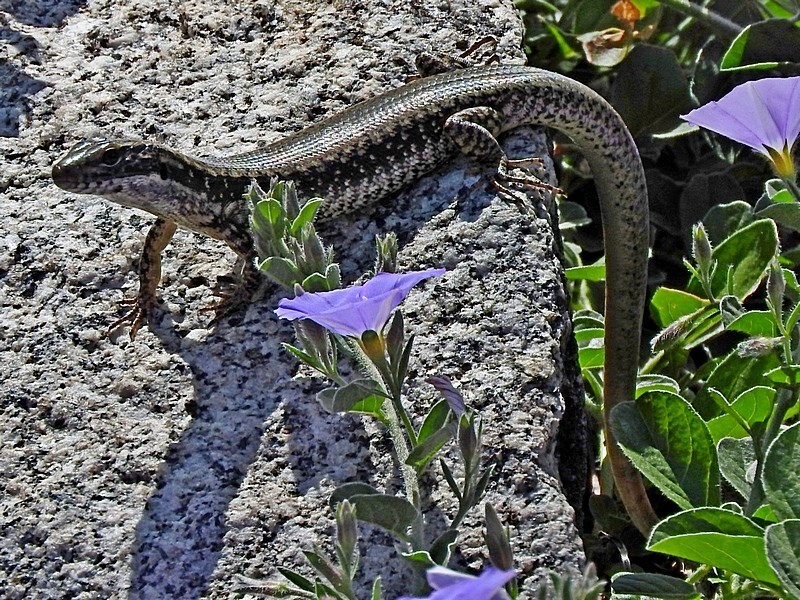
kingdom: Animalia
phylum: Chordata
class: Squamata
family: Scincidae
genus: Eulamprus
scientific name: Eulamprus heatwolei
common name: Warm-temperate water-skink
